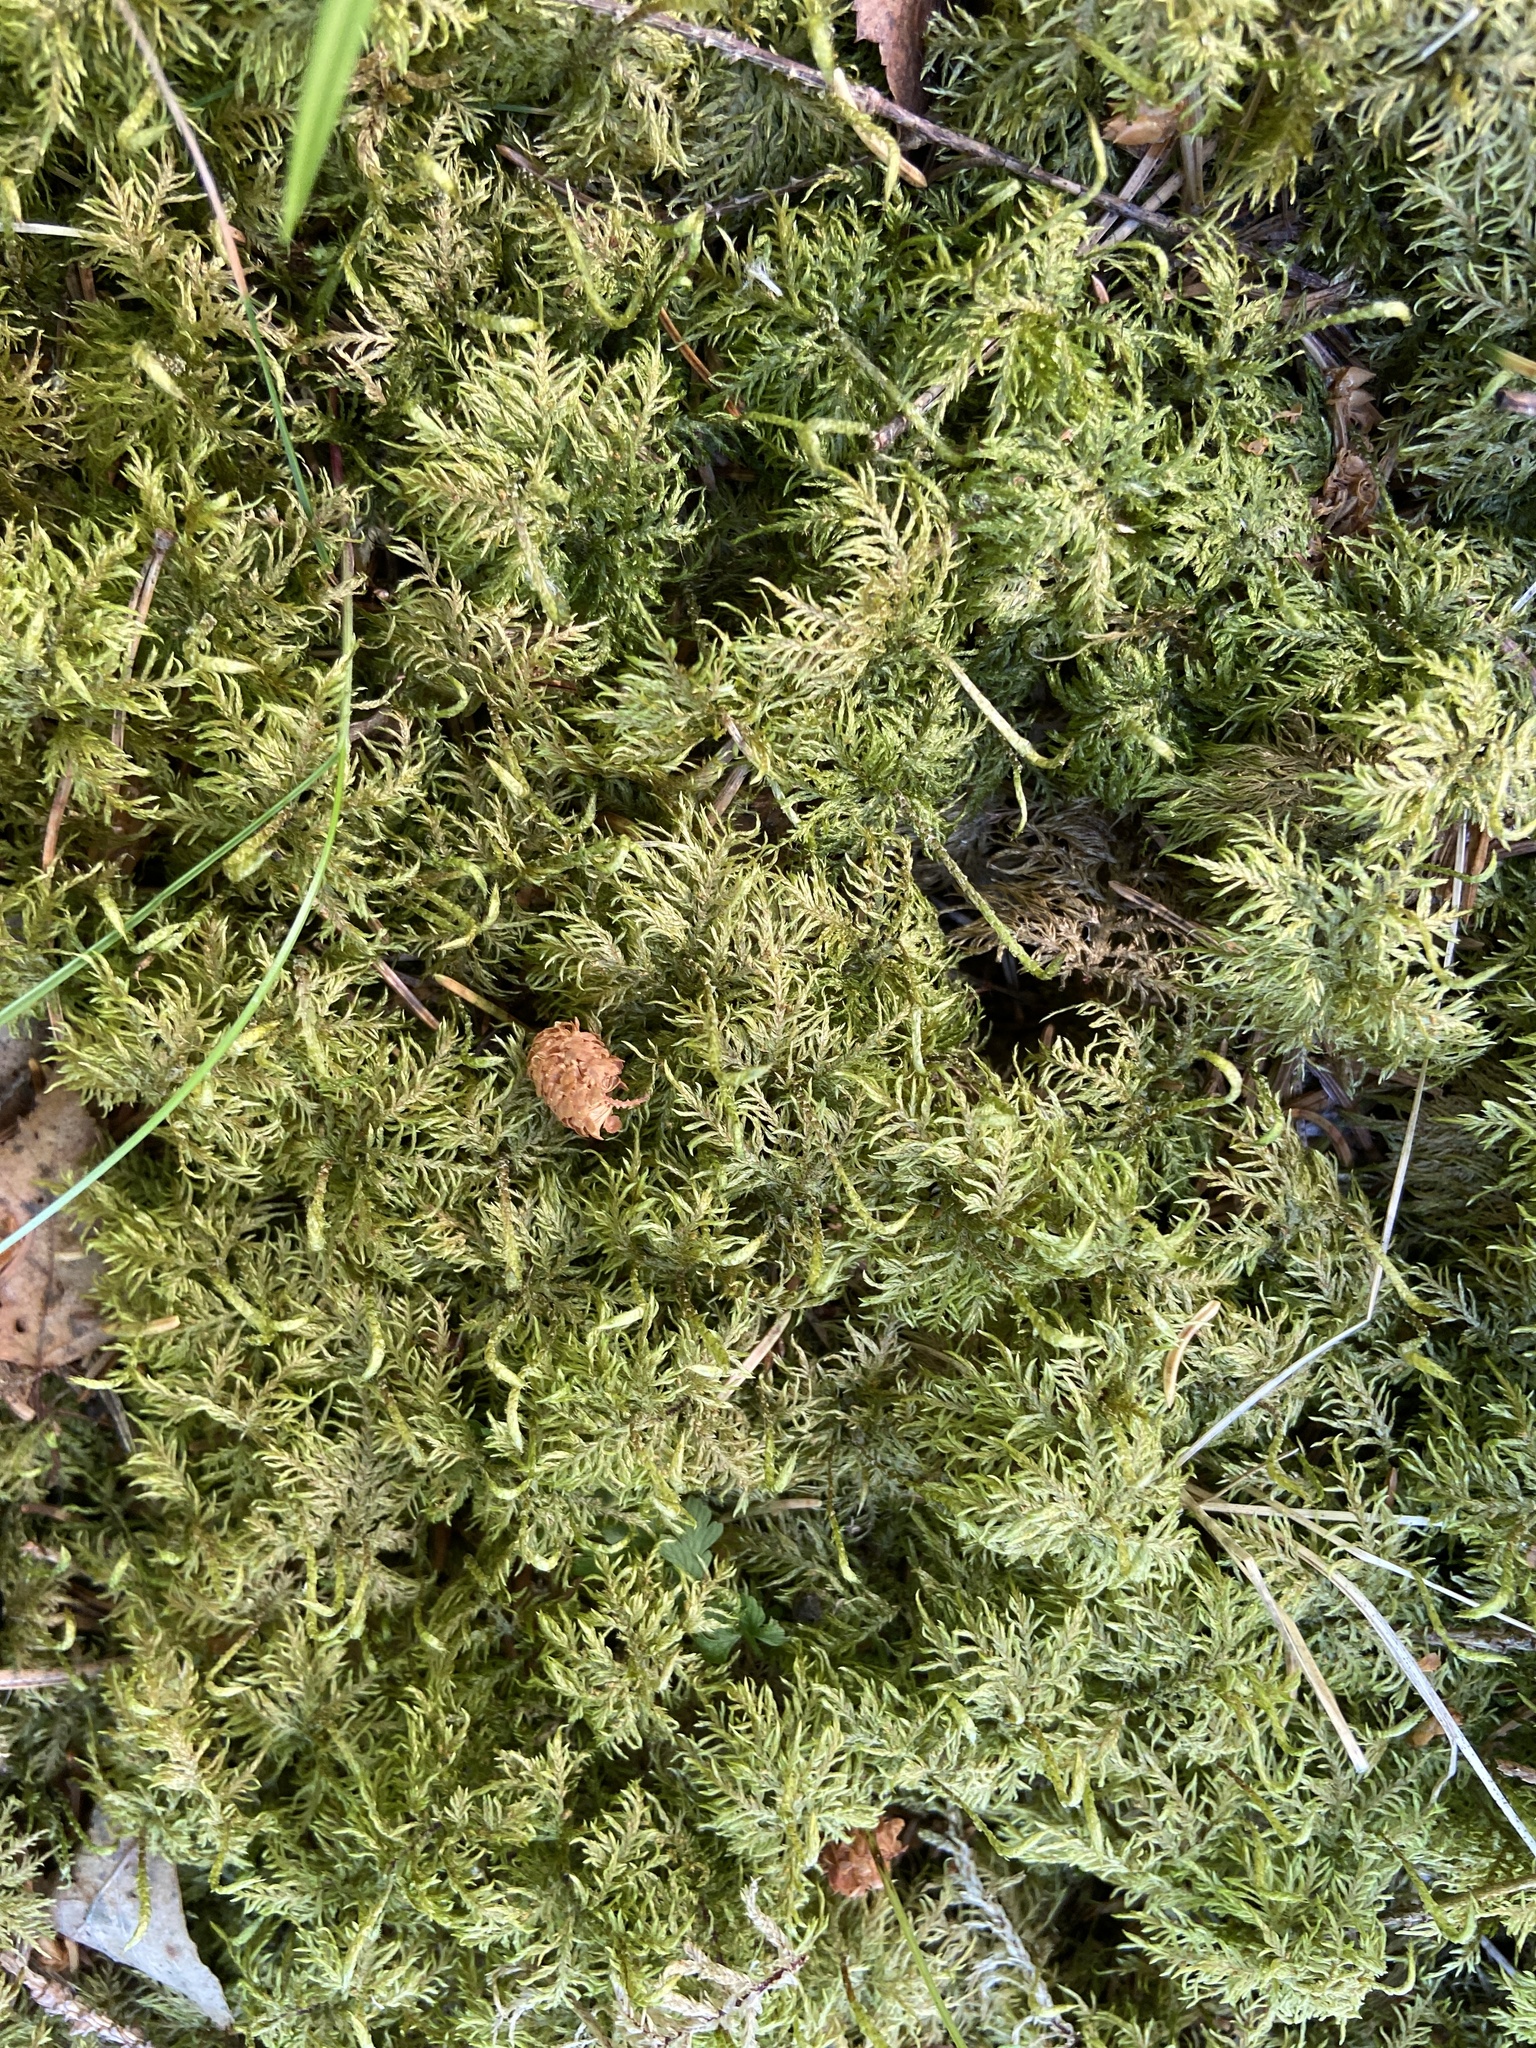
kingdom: Plantae
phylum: Bryophyta
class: Bryopsida
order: Hypnales
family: Hylocomiaceae
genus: Hylocomium
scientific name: Hylocomium splendens
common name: Stairstep moss
